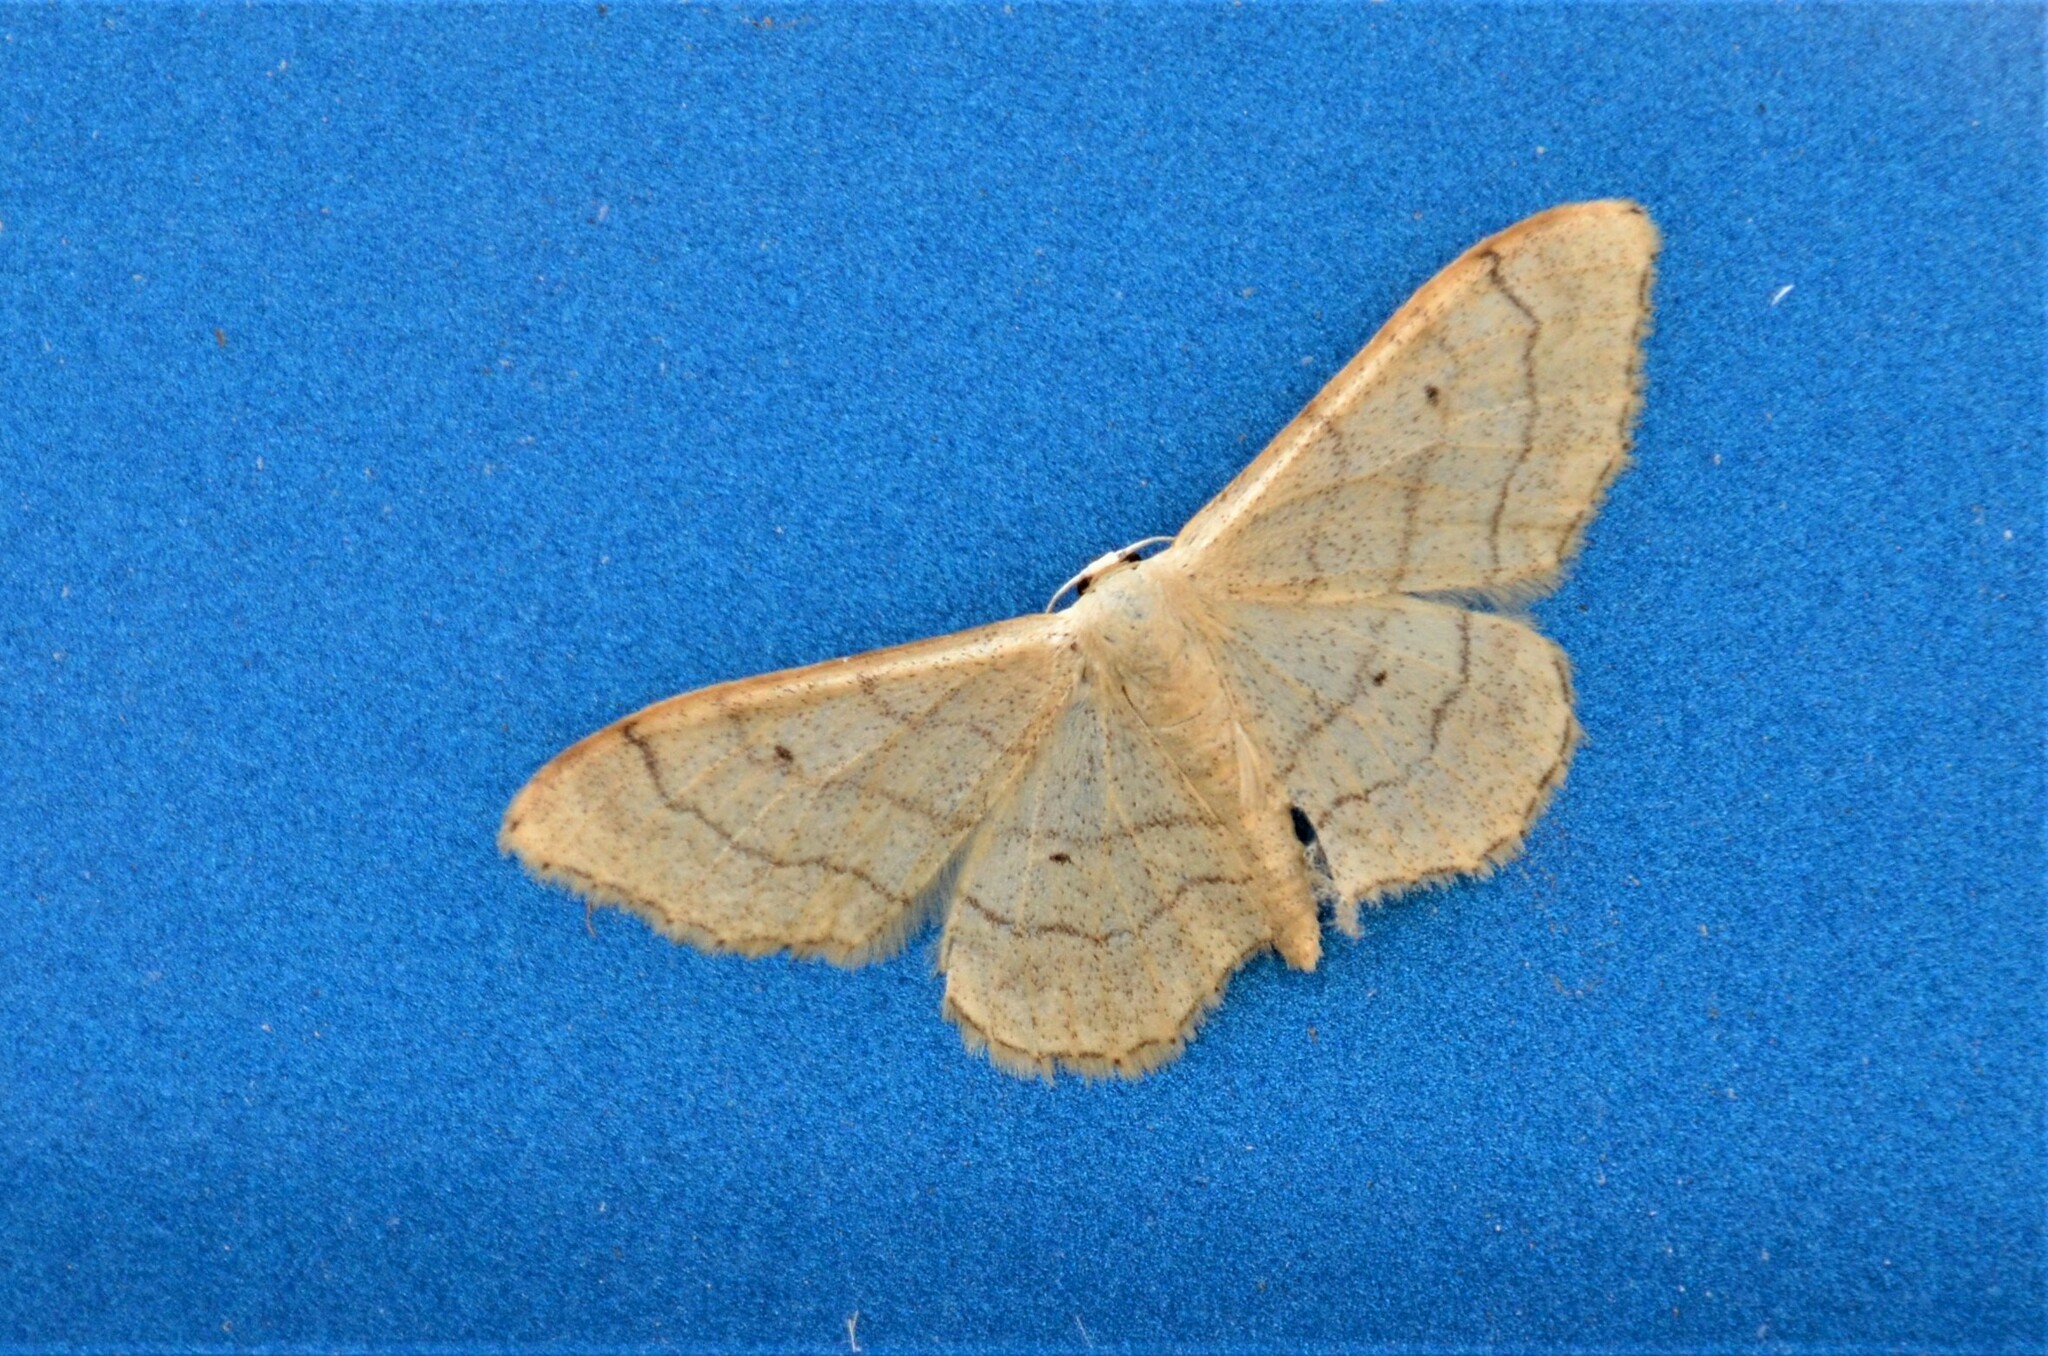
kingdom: Animalia
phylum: Arthropoda
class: Insecta
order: Lepidoptera
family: Geometridae
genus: Idaea
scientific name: Idaea aversata
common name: Riband wave
